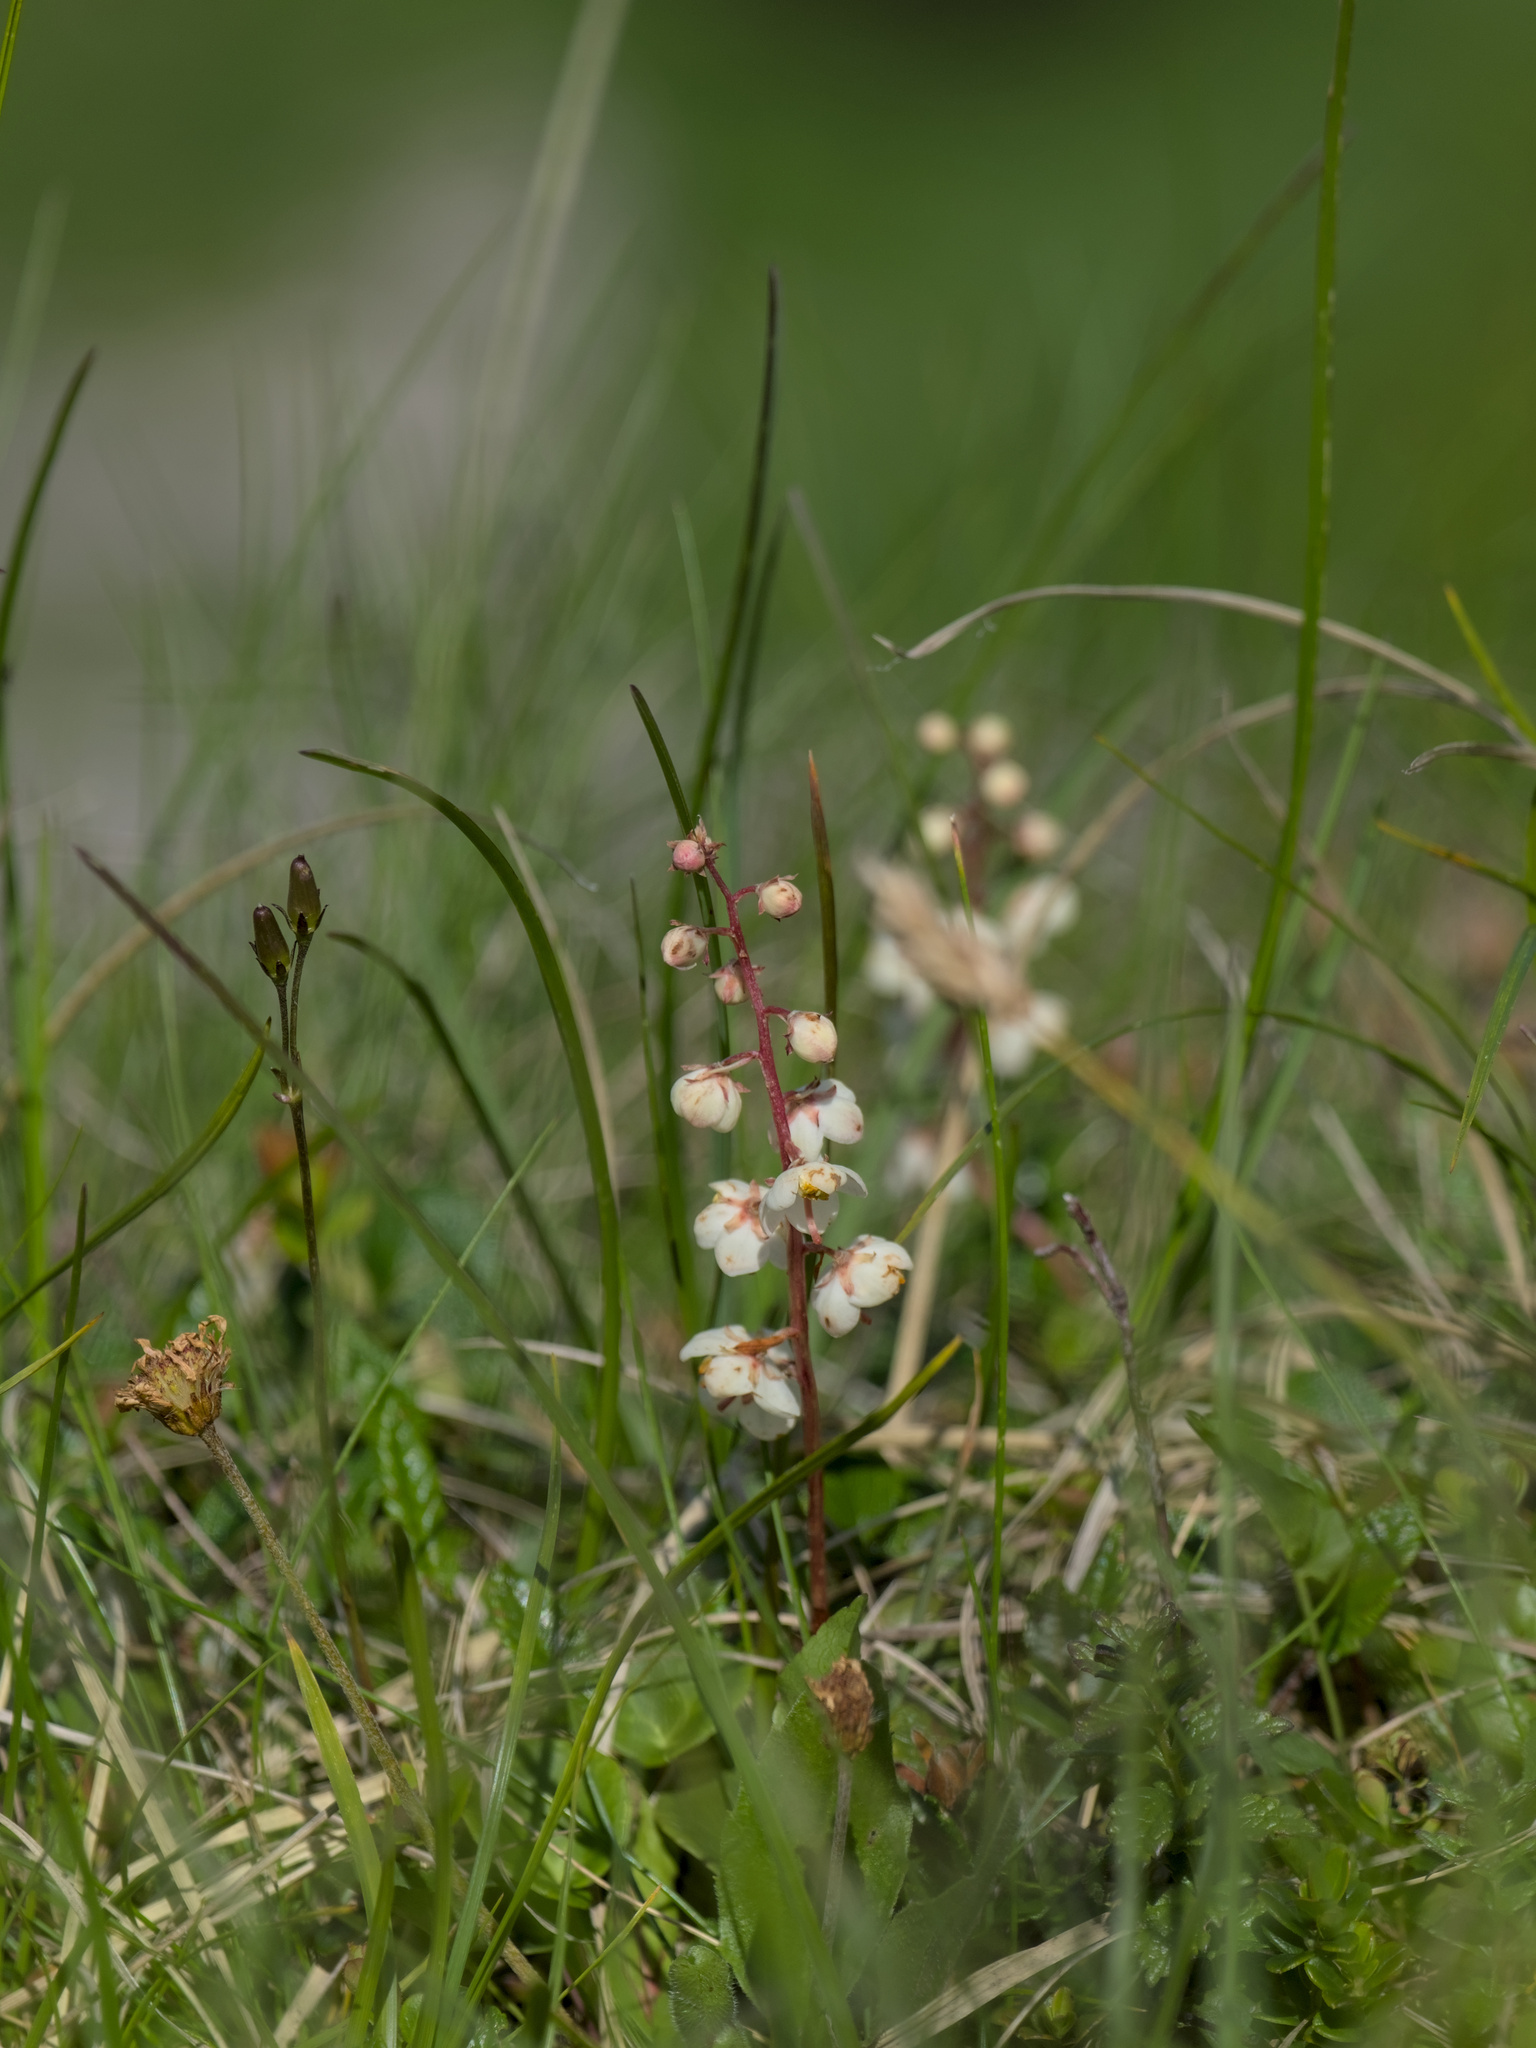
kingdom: Plantae
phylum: Tracheophyta
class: Magnoliopsida
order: Ericales
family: Ericaceae
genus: Pyrola
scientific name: Pyrola rotundifolia
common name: Round-leaved wintergreen
